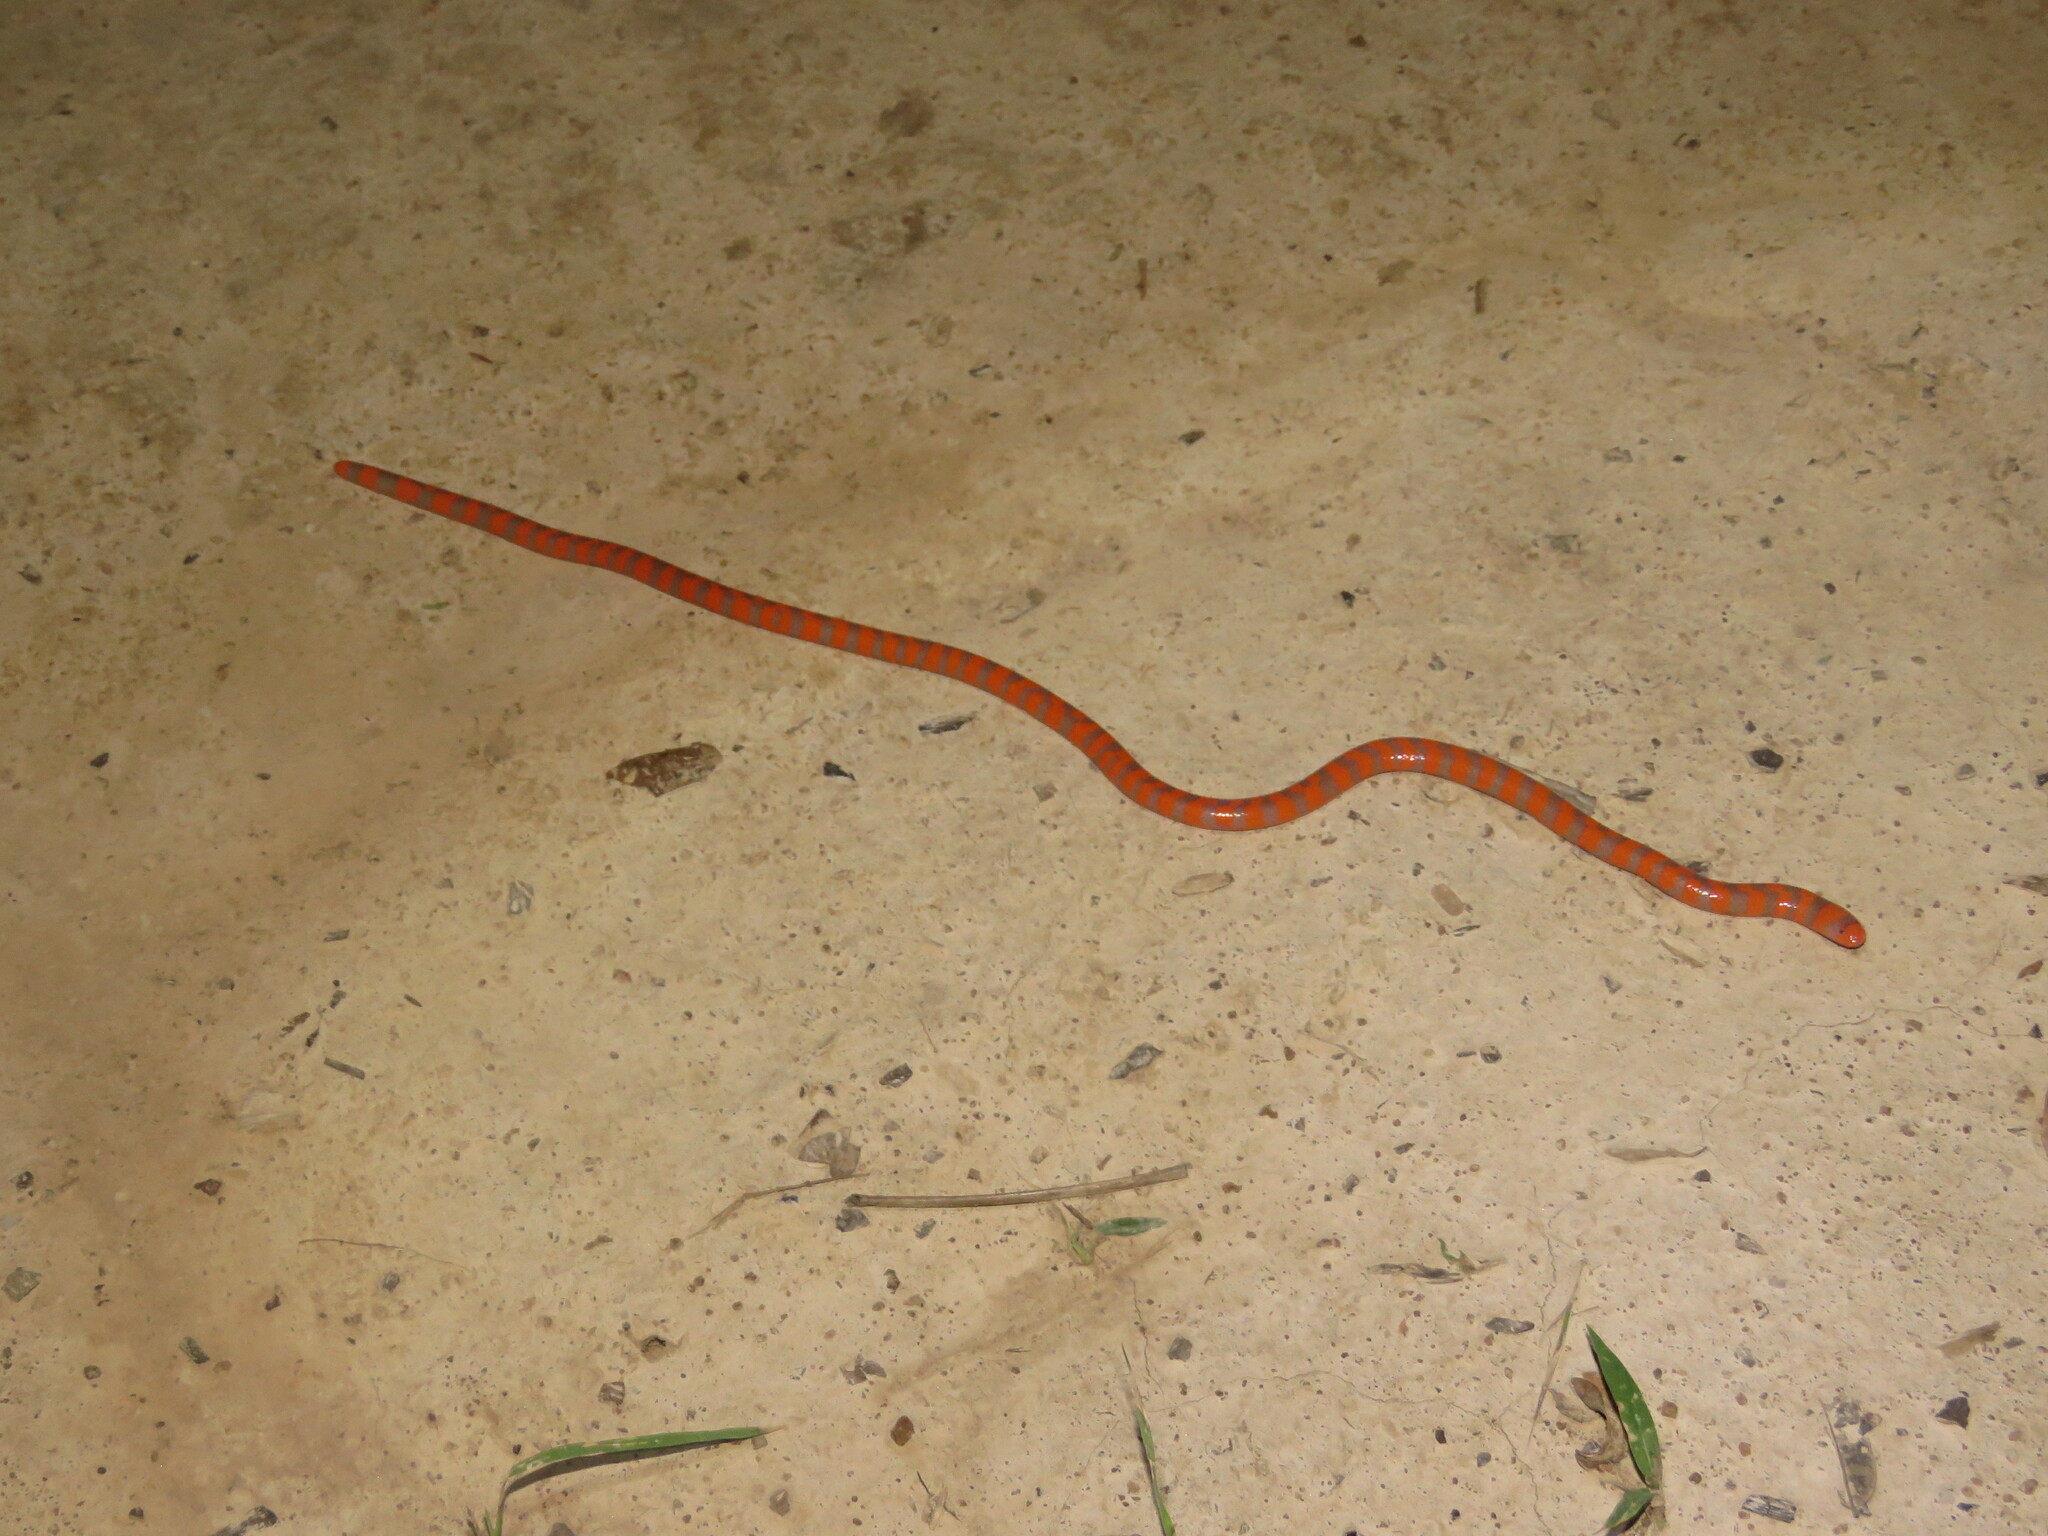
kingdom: Animalia
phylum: Chordata
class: Squamata
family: Aniliidae
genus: Anilius
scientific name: Anilius scytale
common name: Coral pipe snakes
